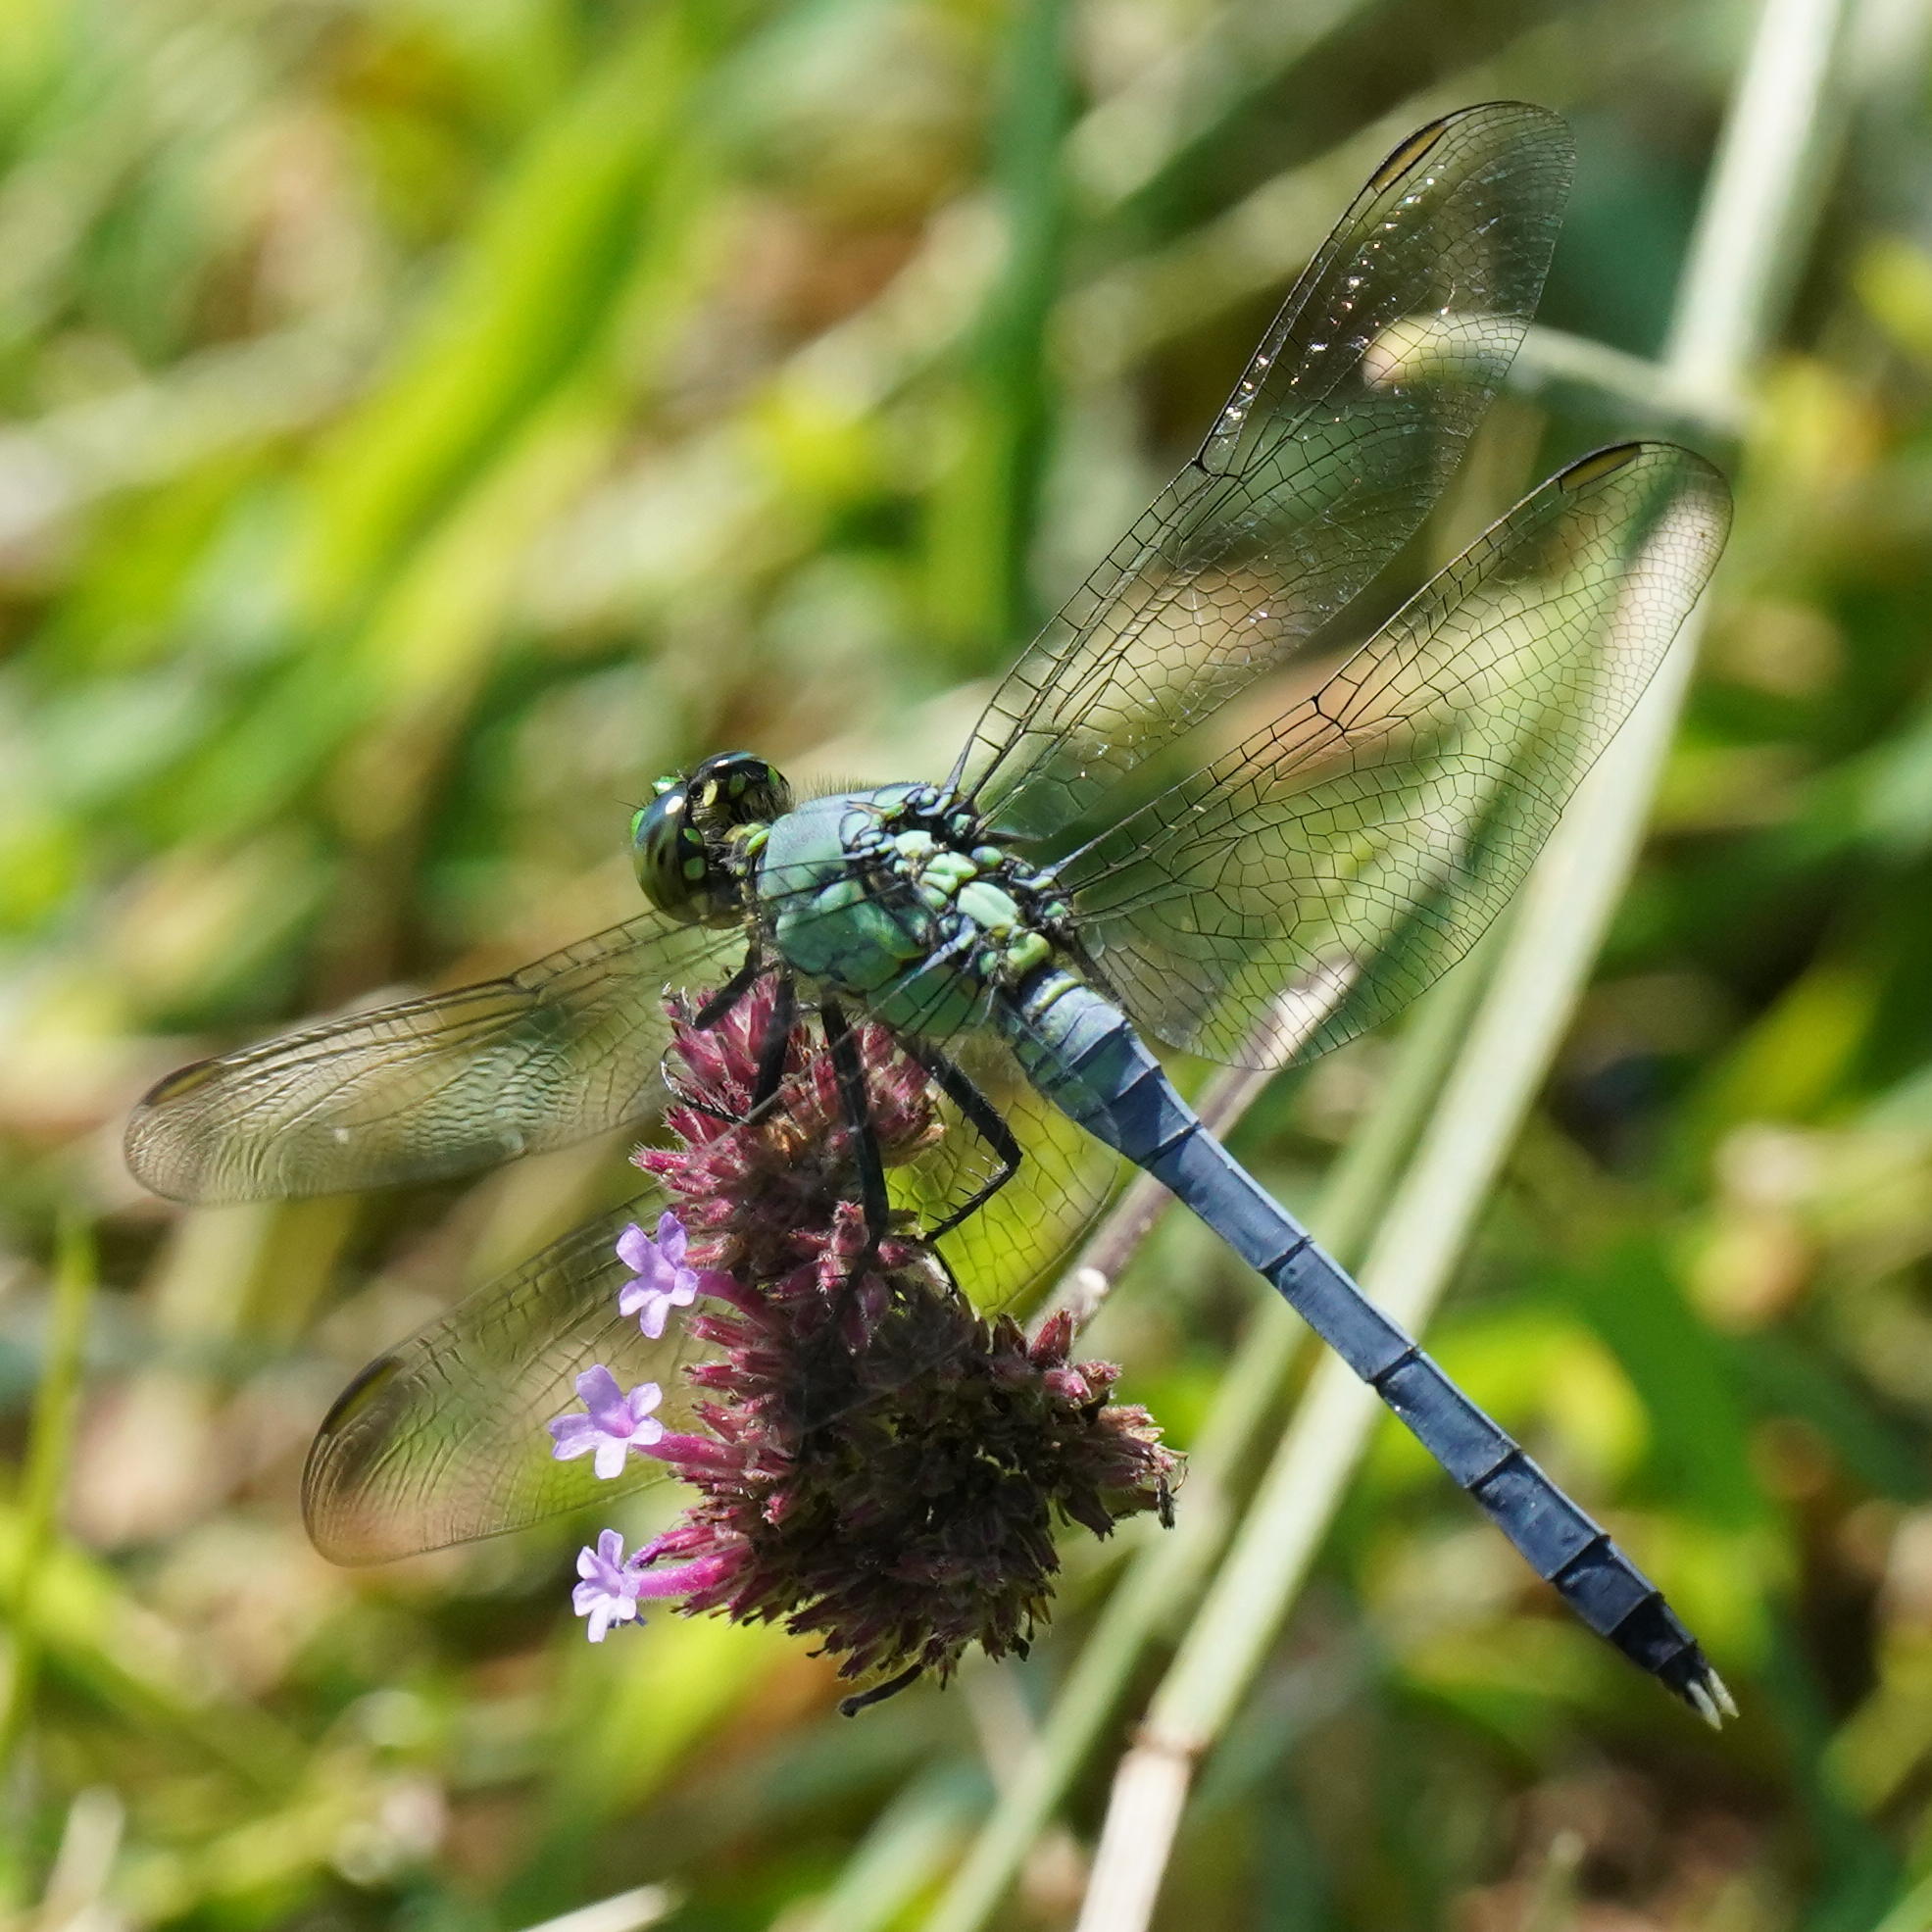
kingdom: Animalia
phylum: Arthropoda
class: Insecta
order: Odonata
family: Libellulidae
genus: Erythemis
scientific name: Erythemis simplicicollis
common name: Eastern pondhawk
